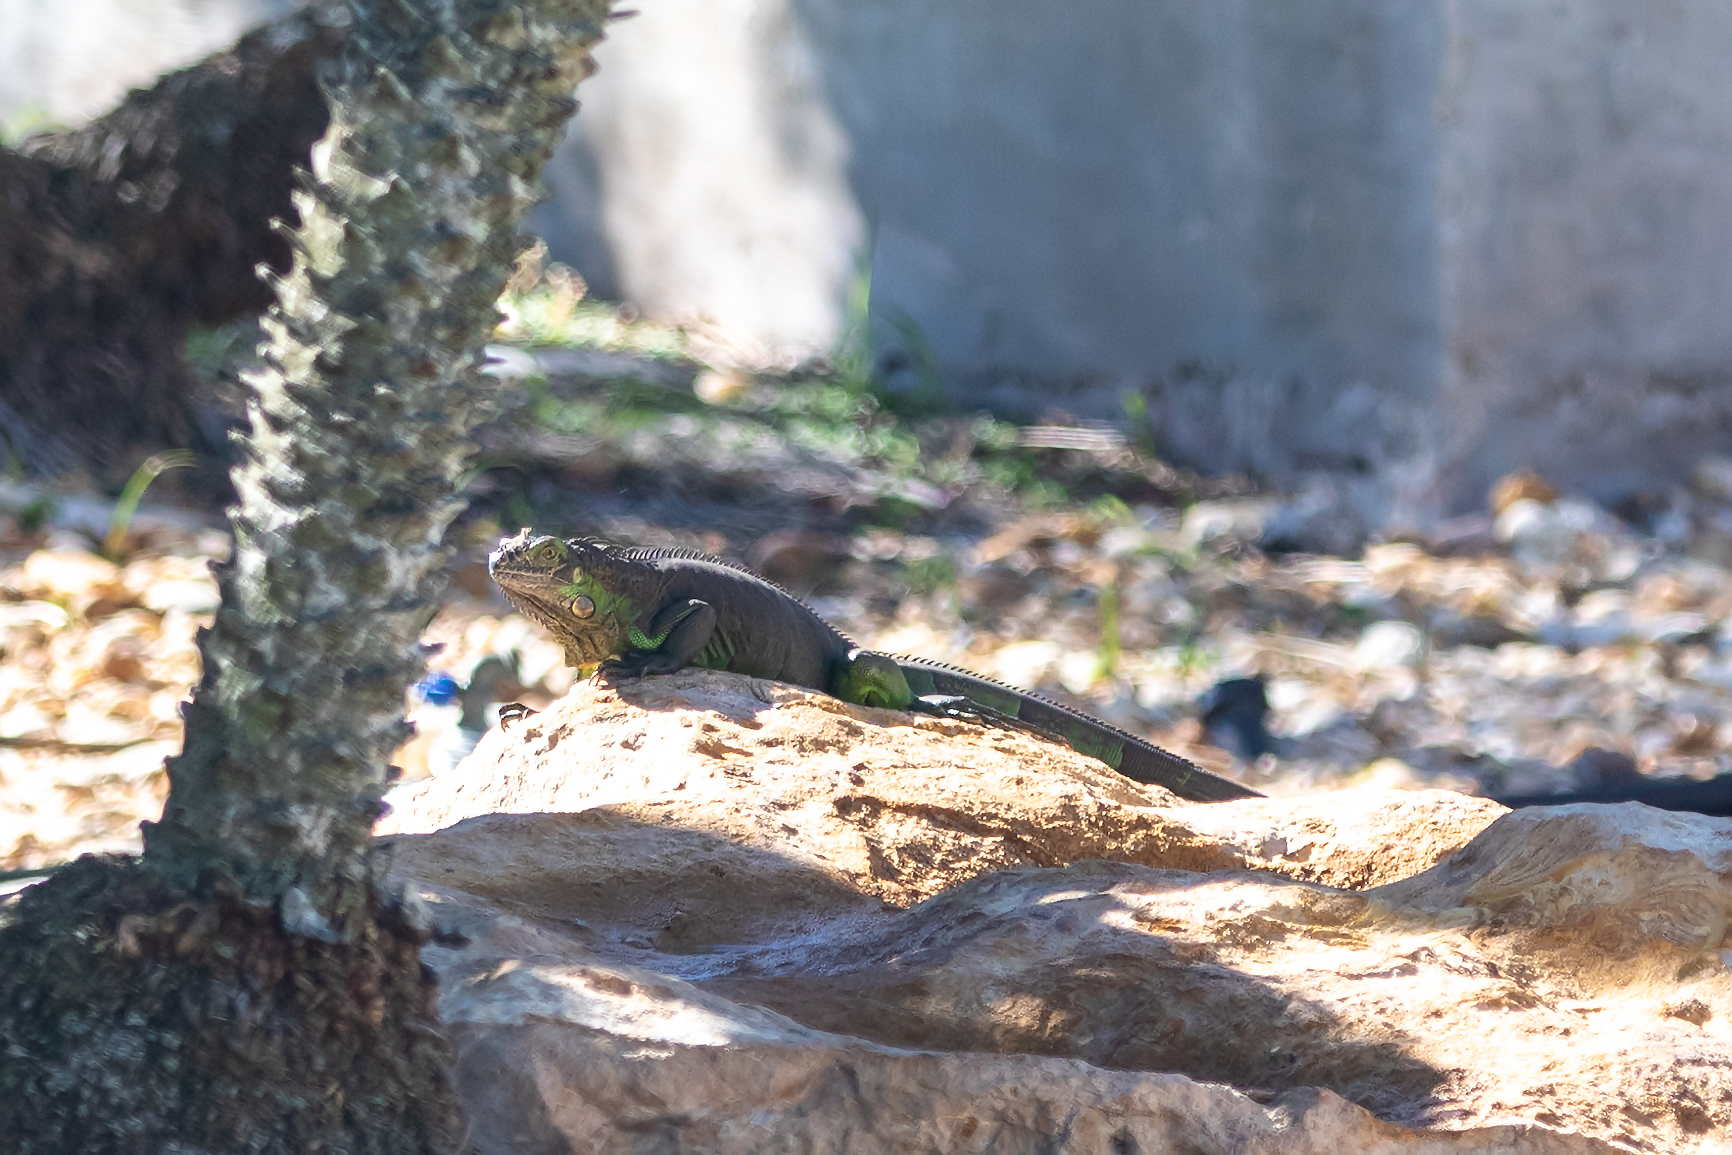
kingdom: Animalia
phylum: Chordata
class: Squamata
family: Iguanidae
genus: Iguana
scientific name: Iguana iguana
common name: Green iguana
